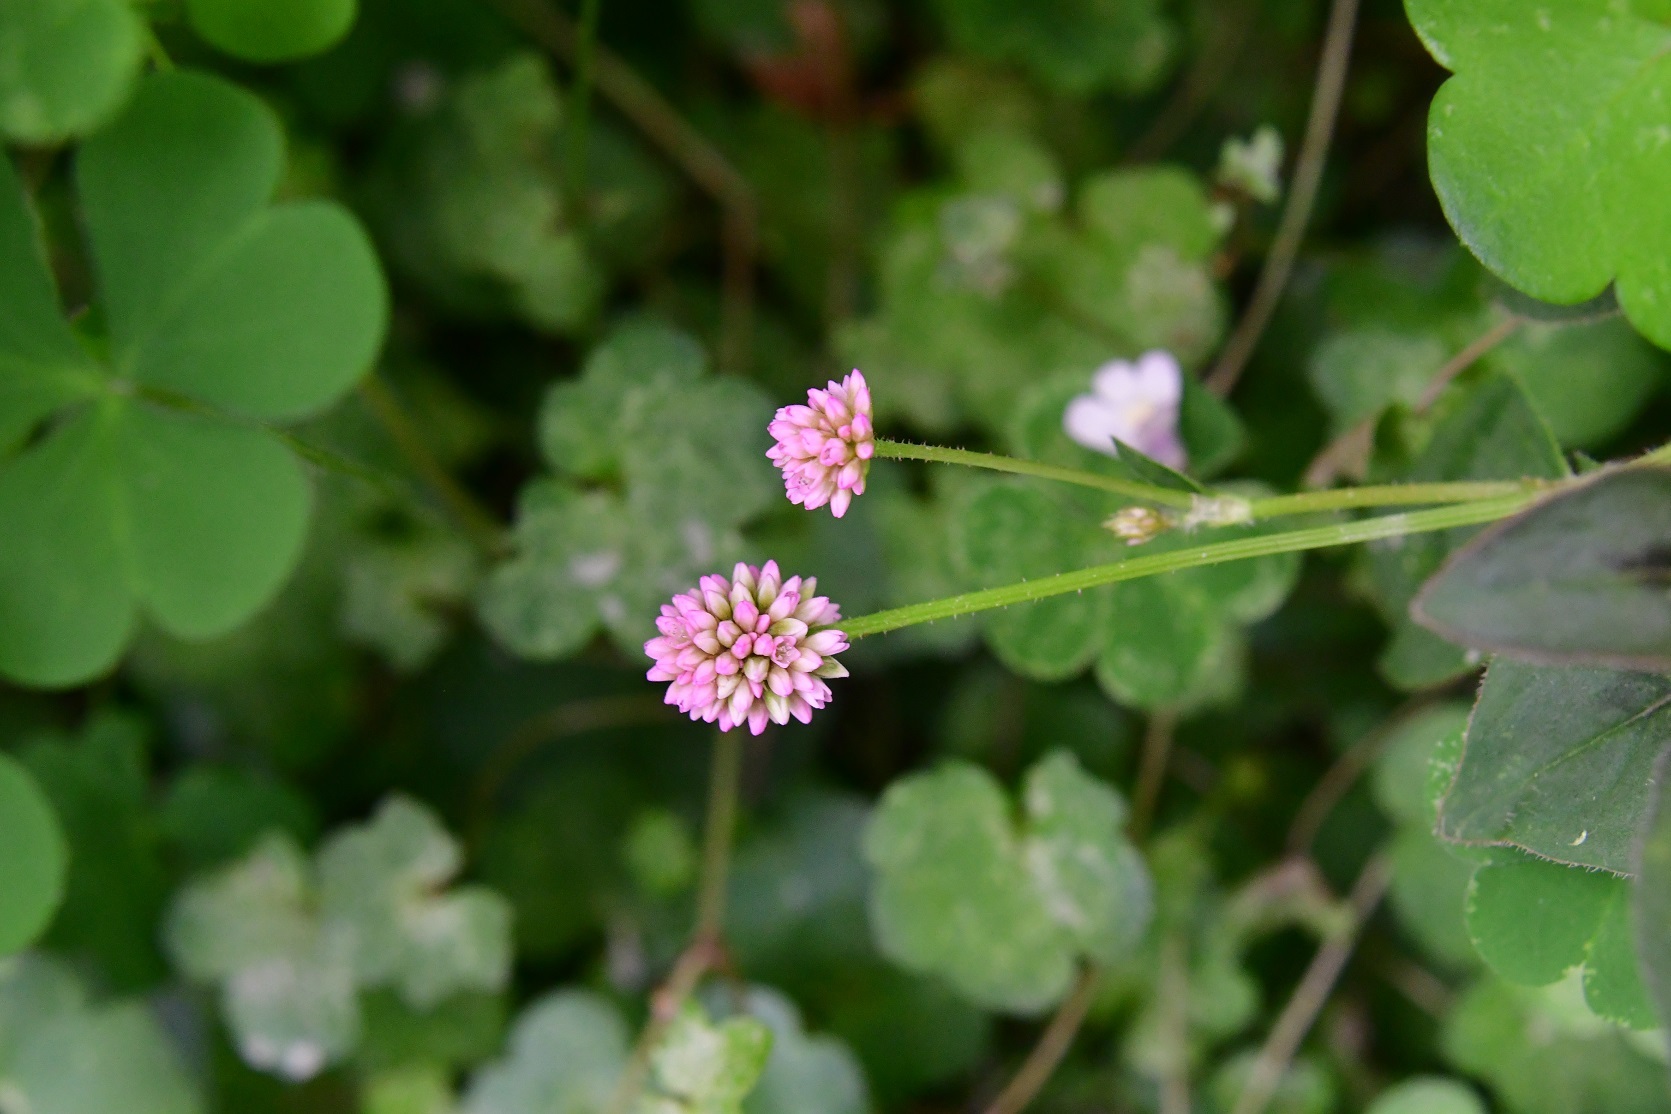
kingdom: Plantae
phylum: Tracheophyta
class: Magnoliopsida
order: Caryophyllales
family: Polygonaceae
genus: Persicaria
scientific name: Persicaria capitata
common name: Pinkhead smartweed
